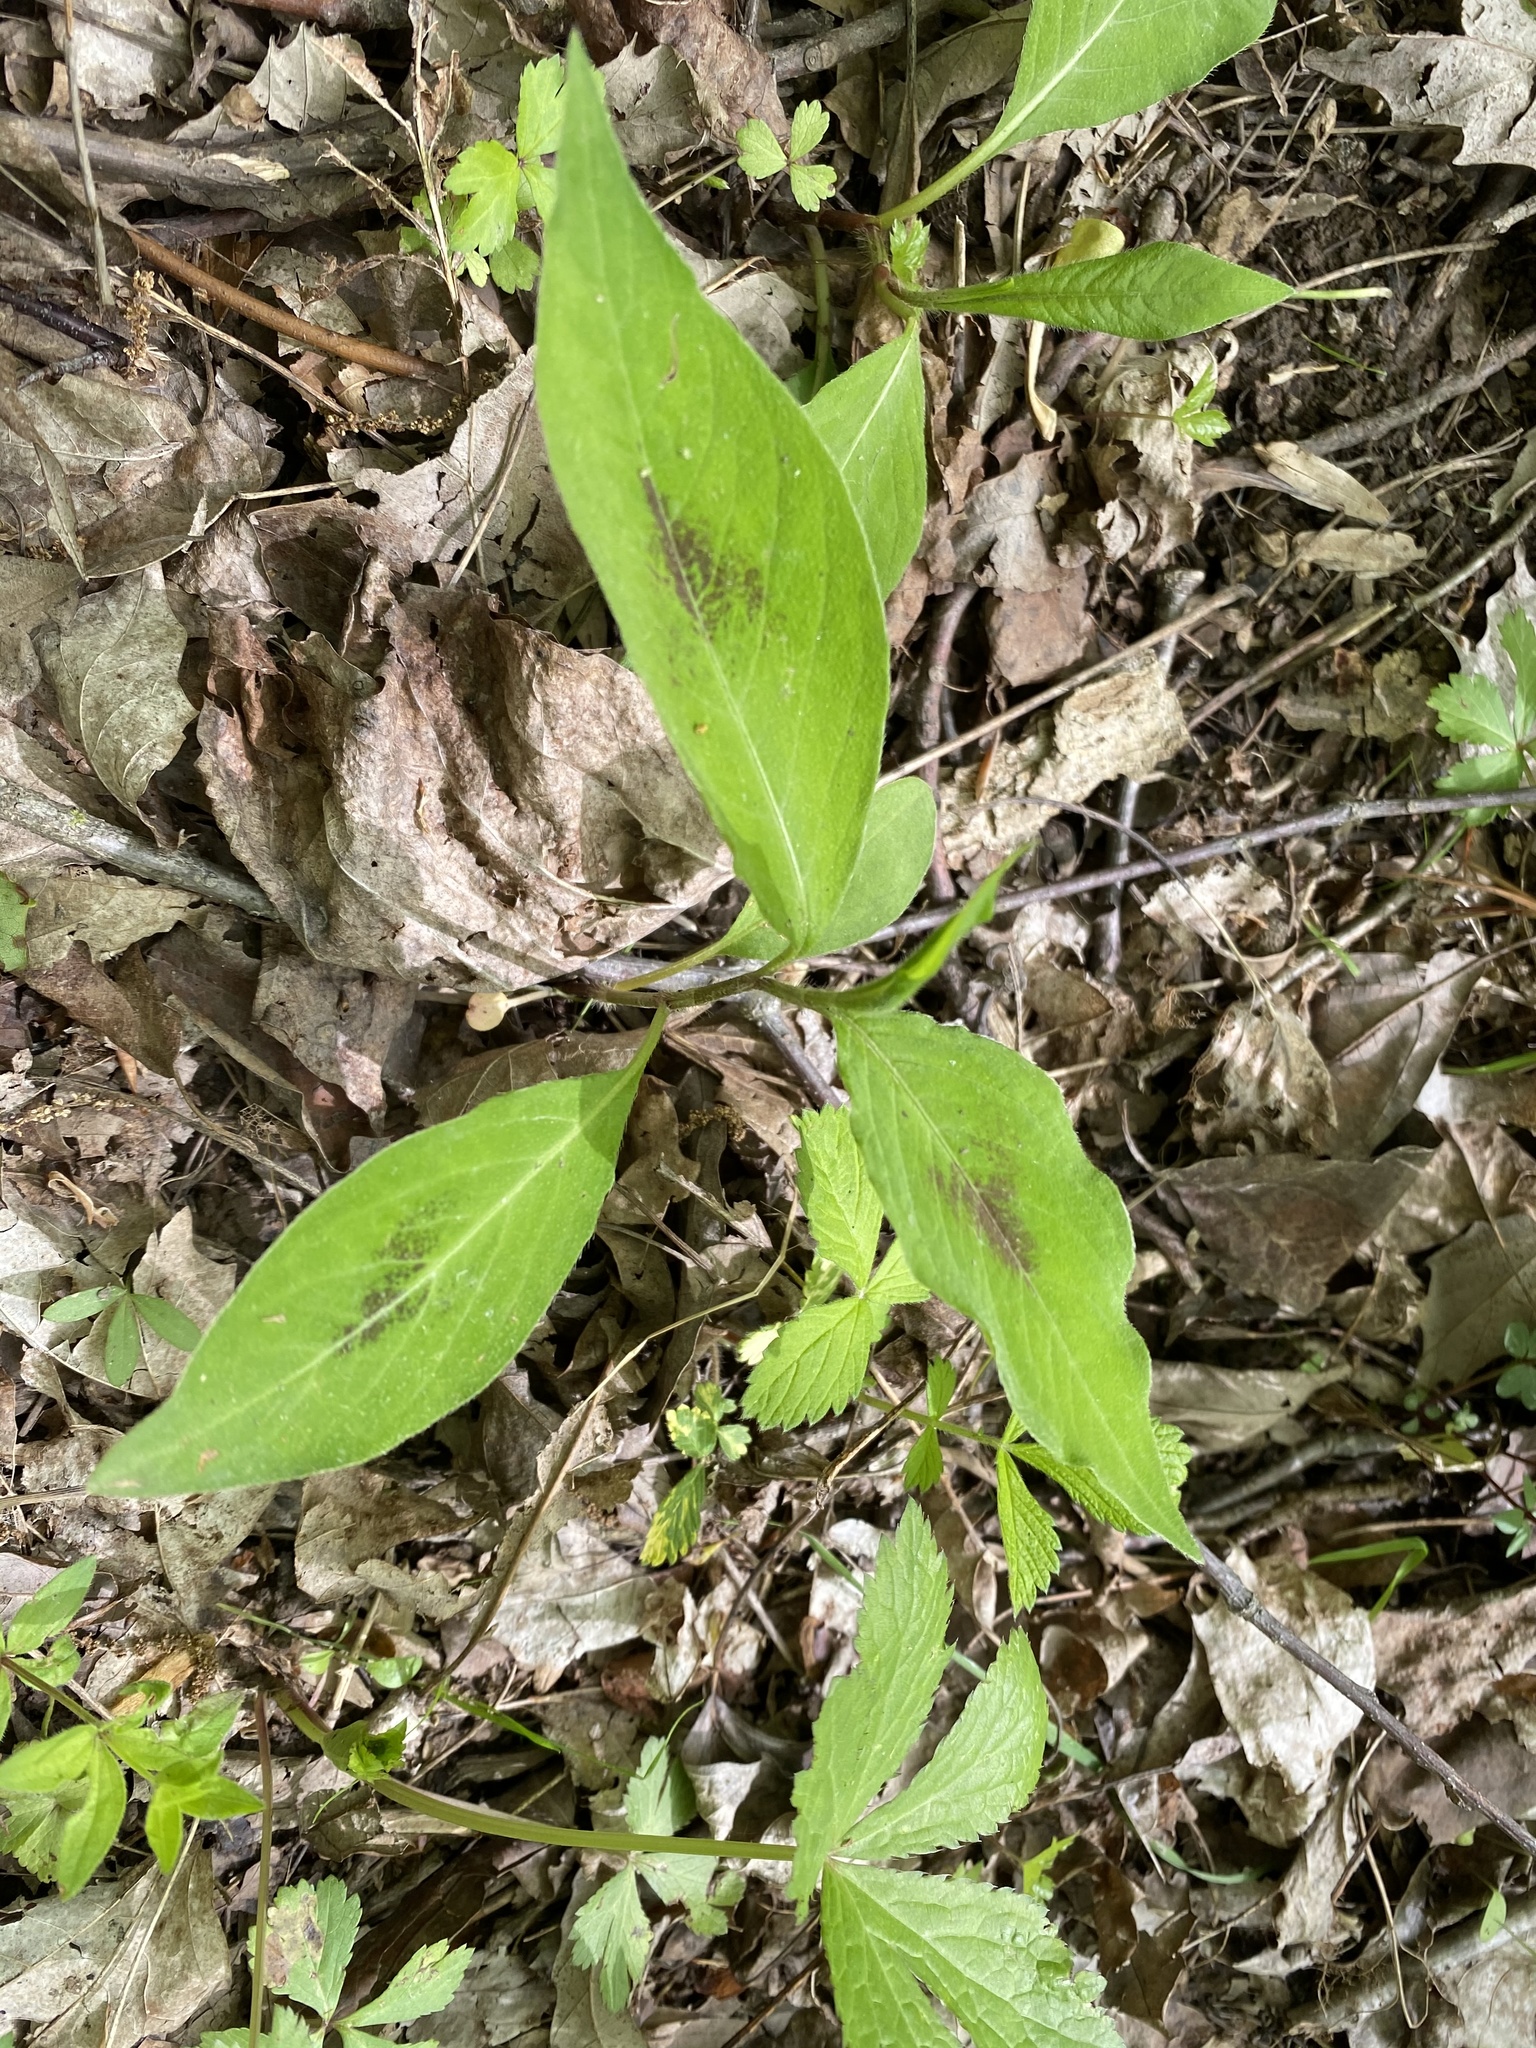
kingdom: Plantae
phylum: Tracheophyta
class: Magnoliopsida
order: Caryophyllales
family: Polygonaceae
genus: Persicaria
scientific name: Persicaria virginiana
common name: Jumpseed
